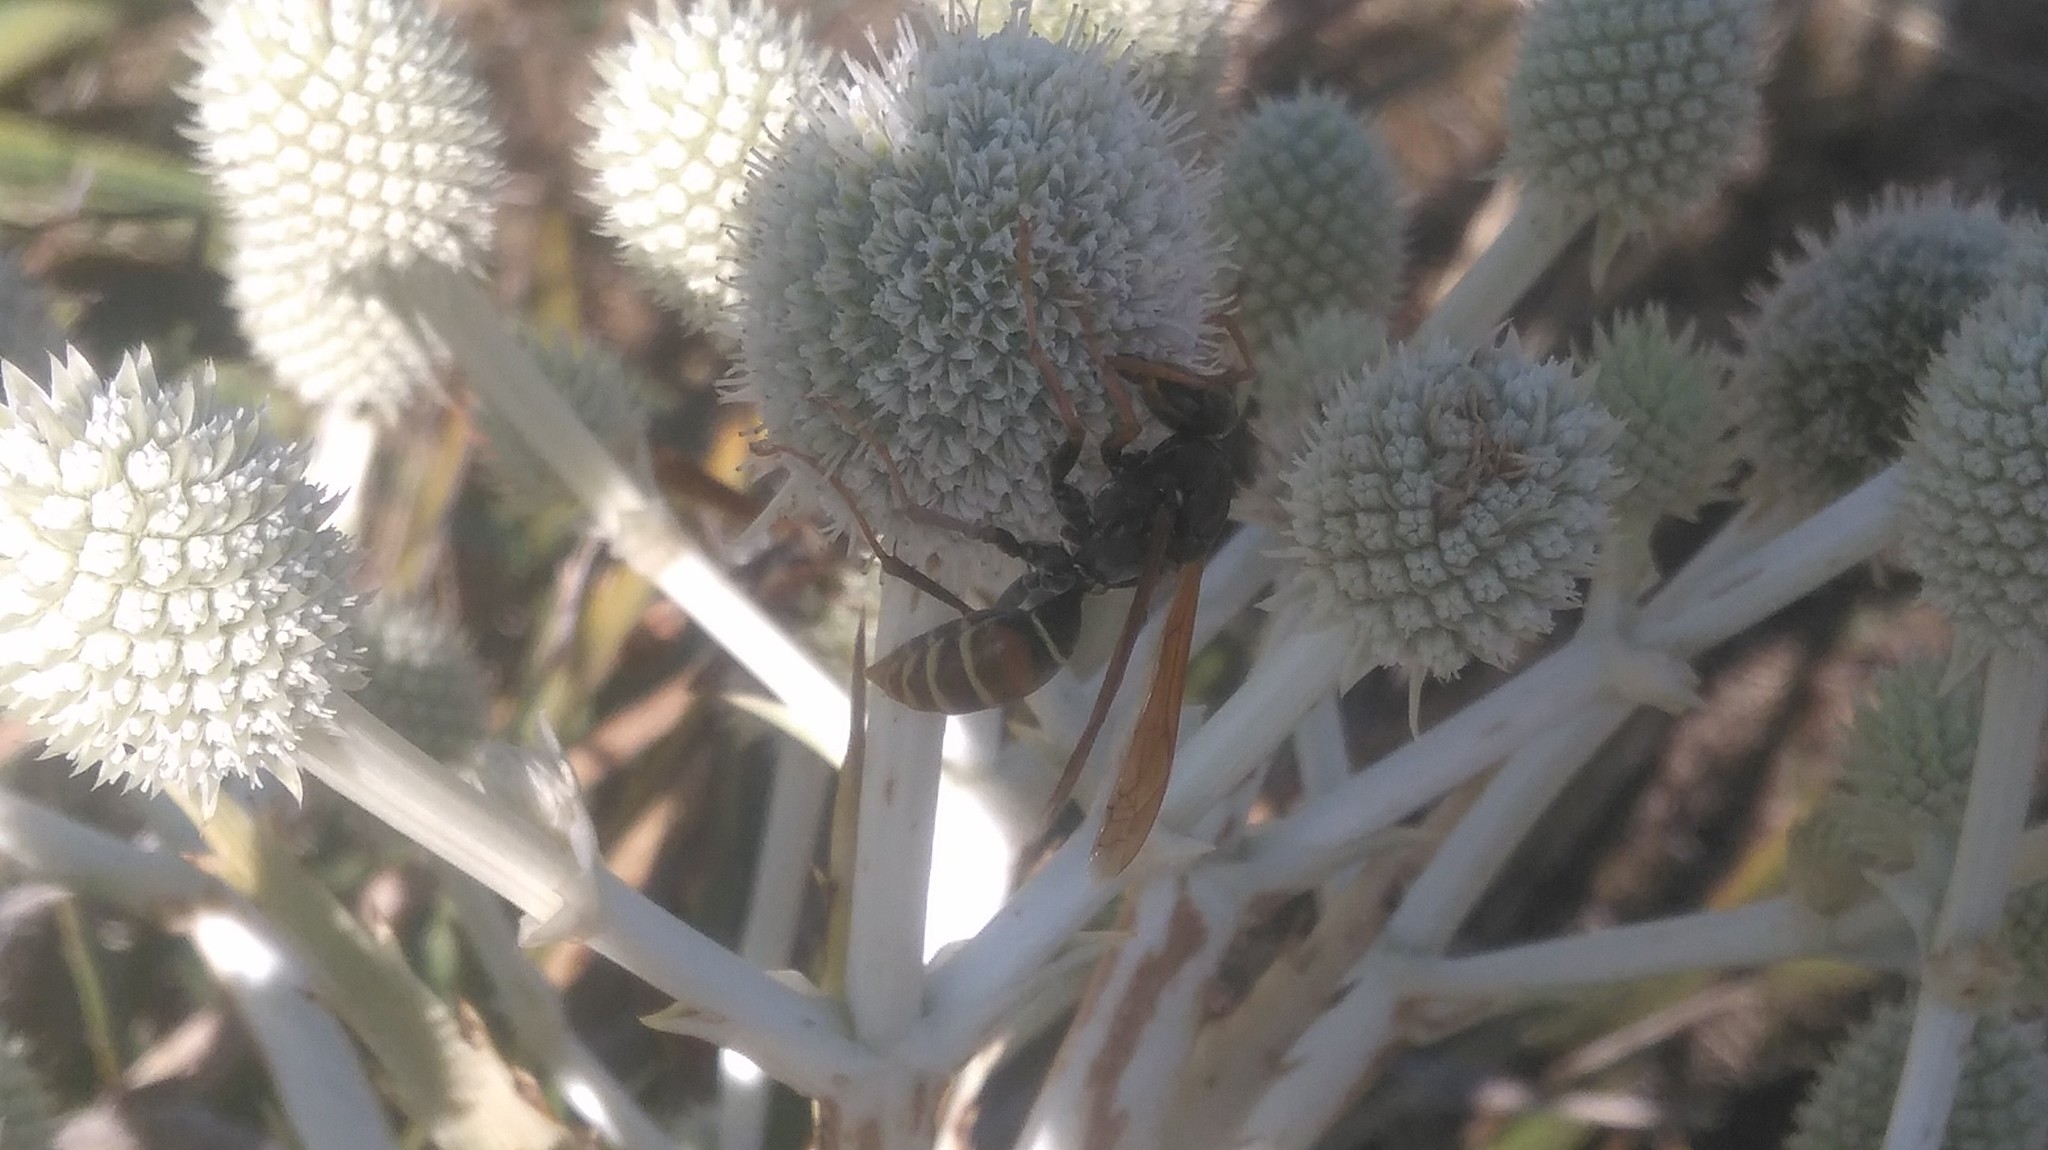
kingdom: Animalia
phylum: Arthropoda
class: Insecta
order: Hymenoptera
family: Eumenidae
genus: Polistes
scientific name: Polistes billardieri
